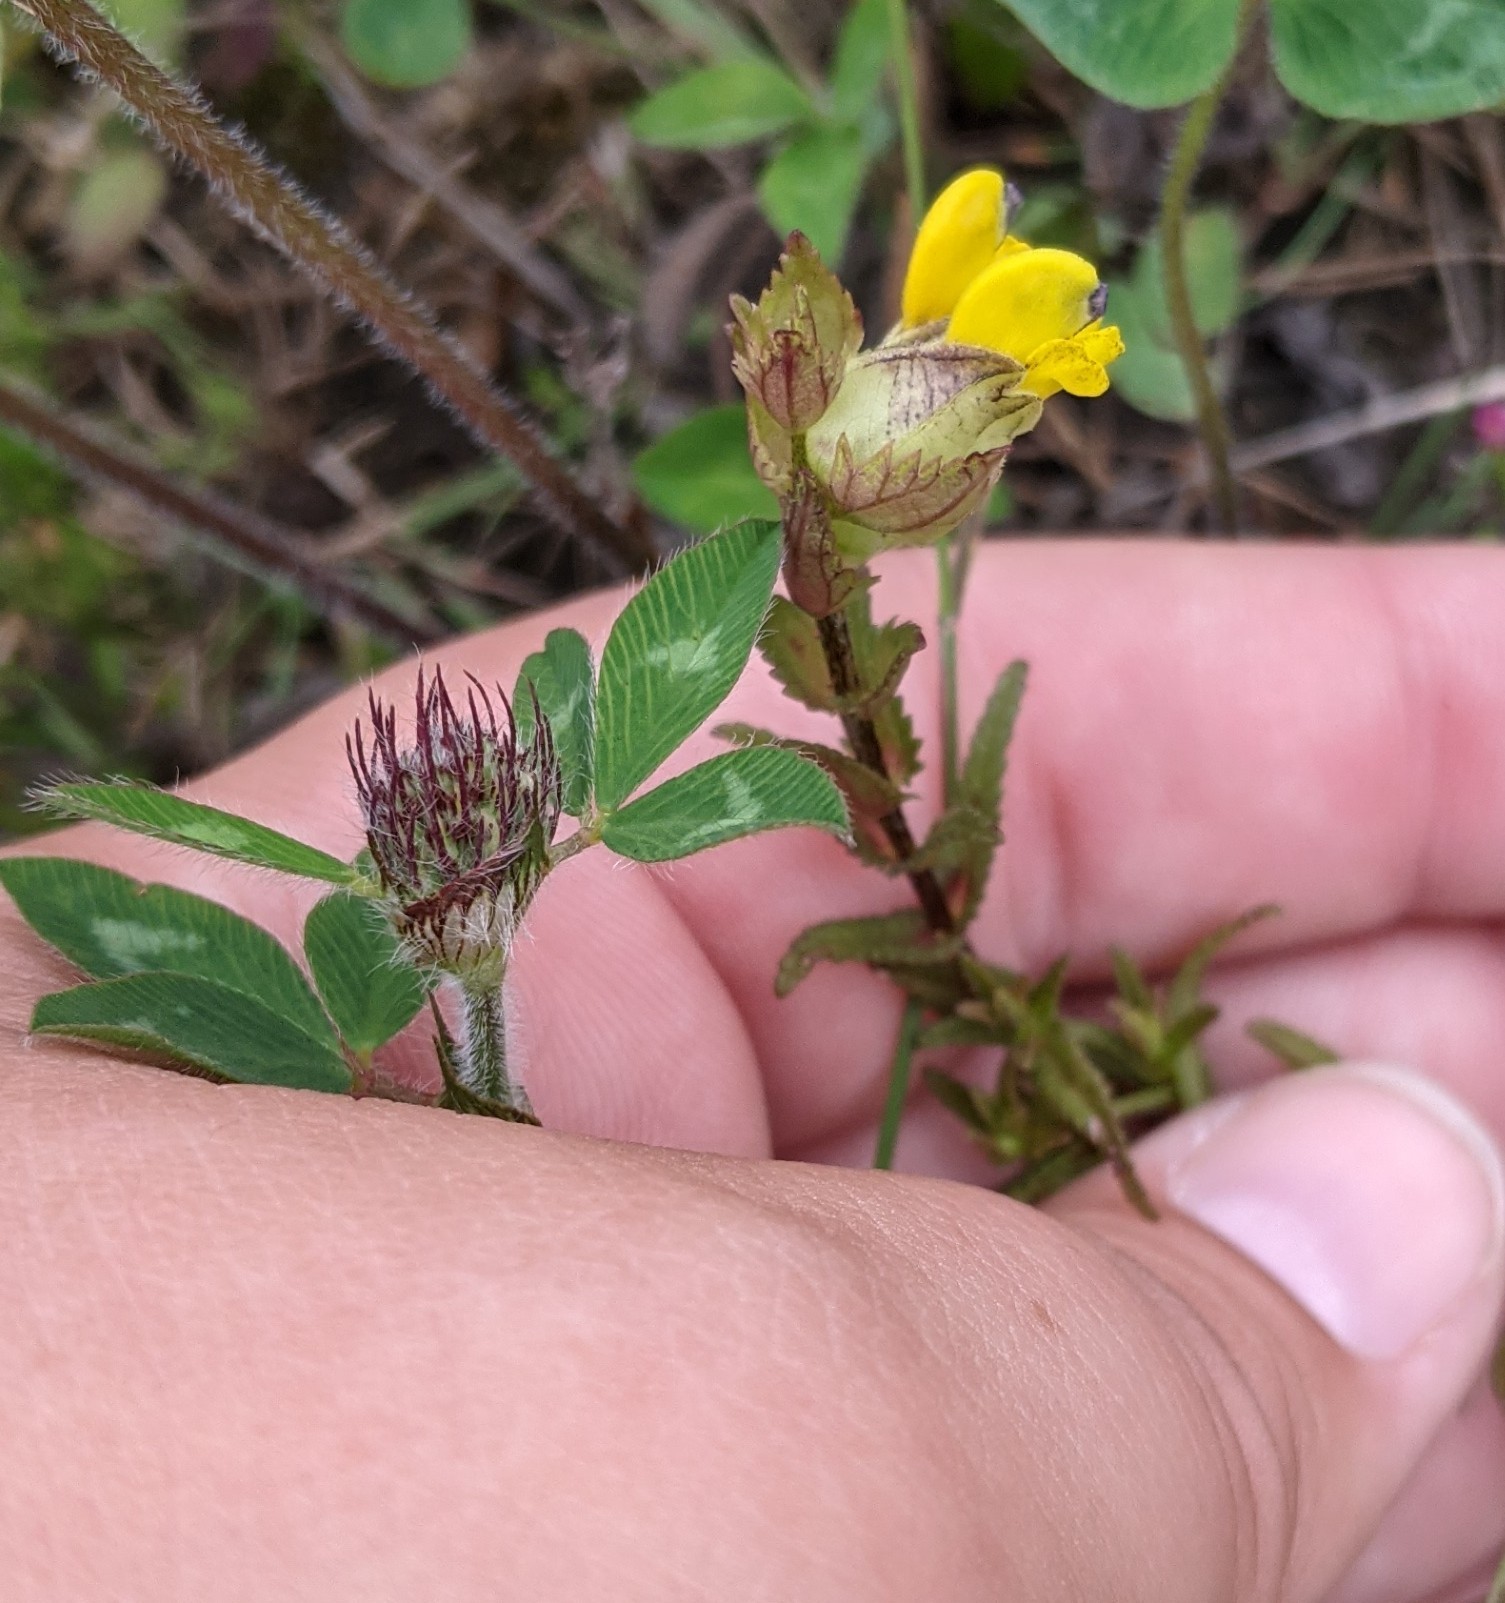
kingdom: Plantae
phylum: Tracheophyta
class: Magnoliopsida
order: Lamiales
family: Orobanchaceae
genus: Rhinanthus
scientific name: Rhinanthus minor
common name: Yellow-rattle
